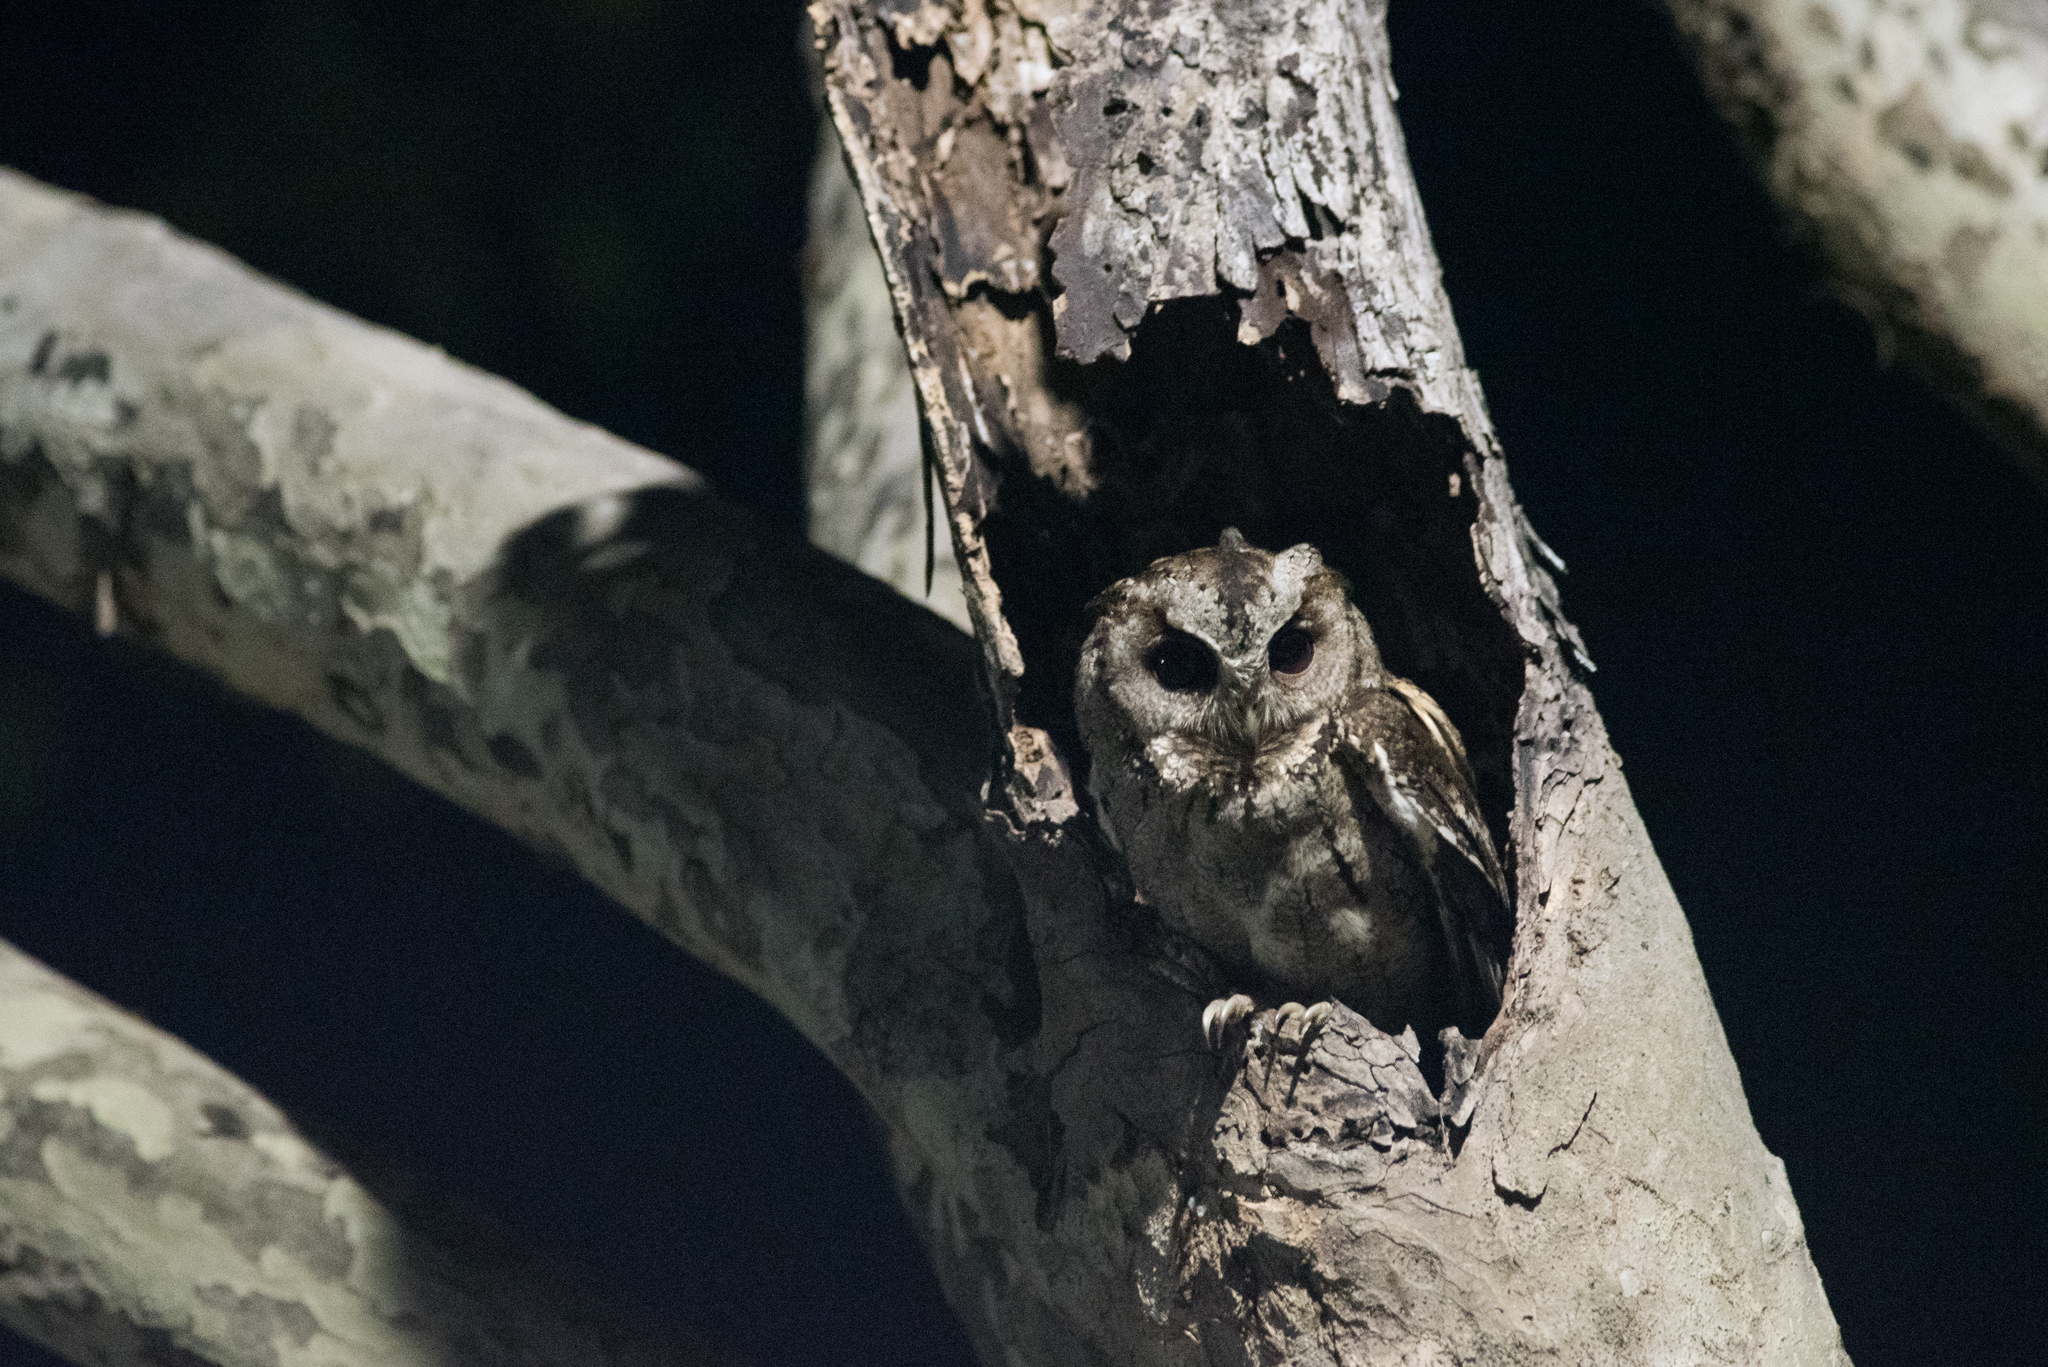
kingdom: Animalia
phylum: Chordata
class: Aves
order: Strigiformes
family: Strigidae
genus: Otus
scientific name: Otus lettia
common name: Collared scops owl
